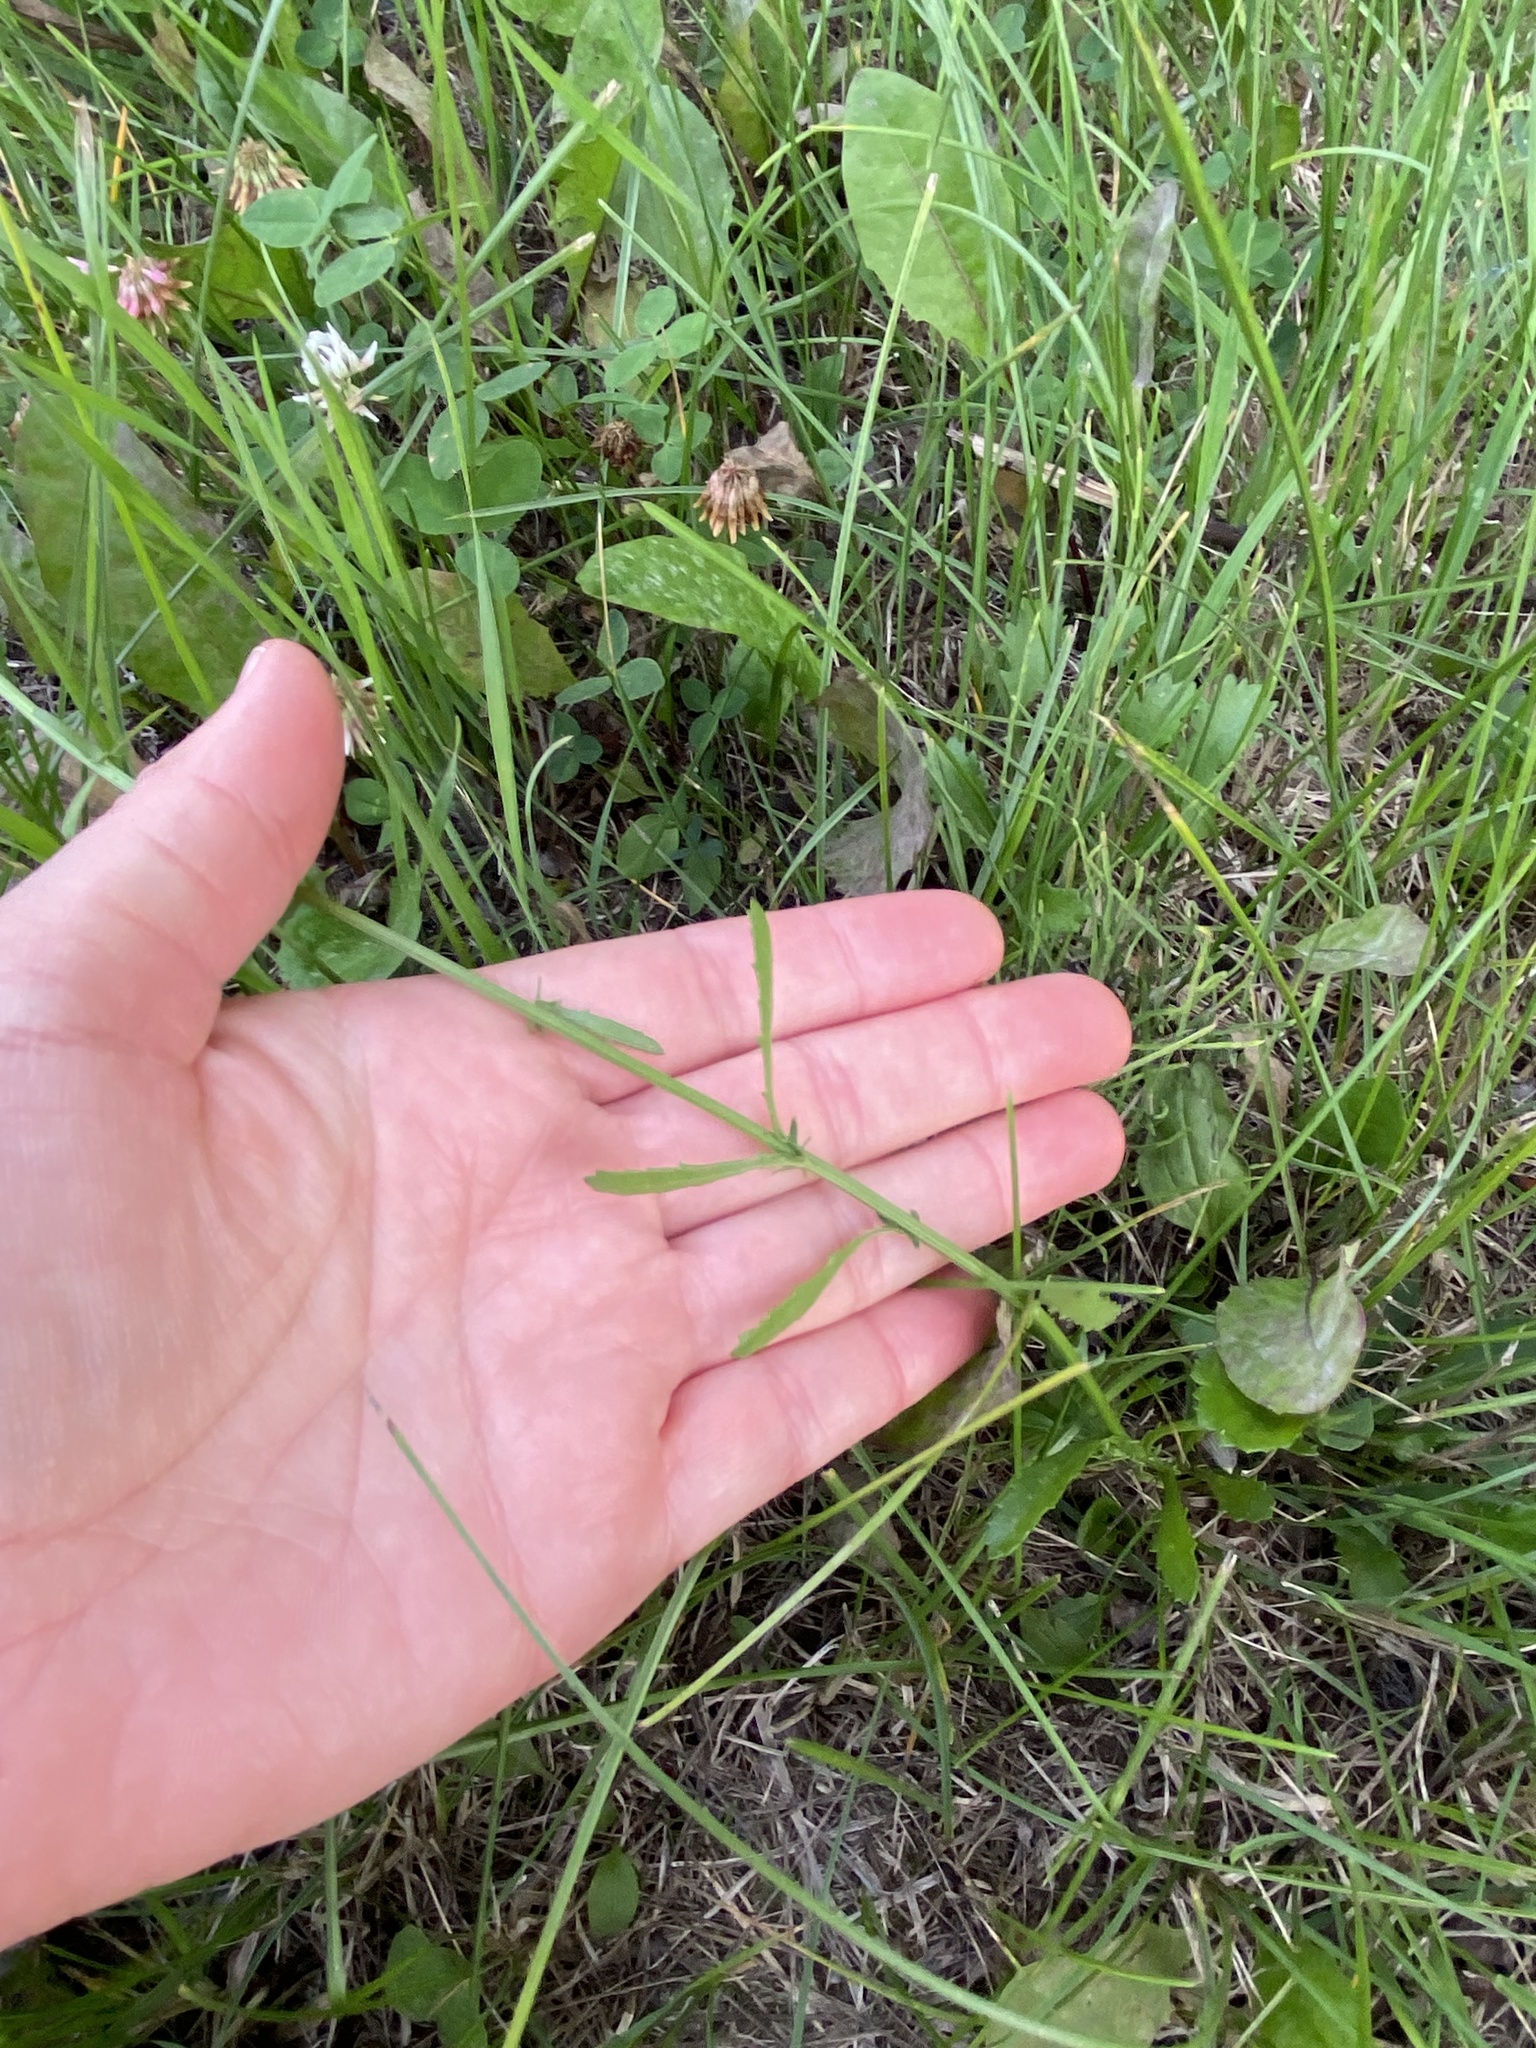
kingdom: Plantae
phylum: Tracheophyta
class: Magnoliopsida
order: Asterales
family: Asteraceae
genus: Achillea
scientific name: Achillea millefolium
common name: Yarrow
